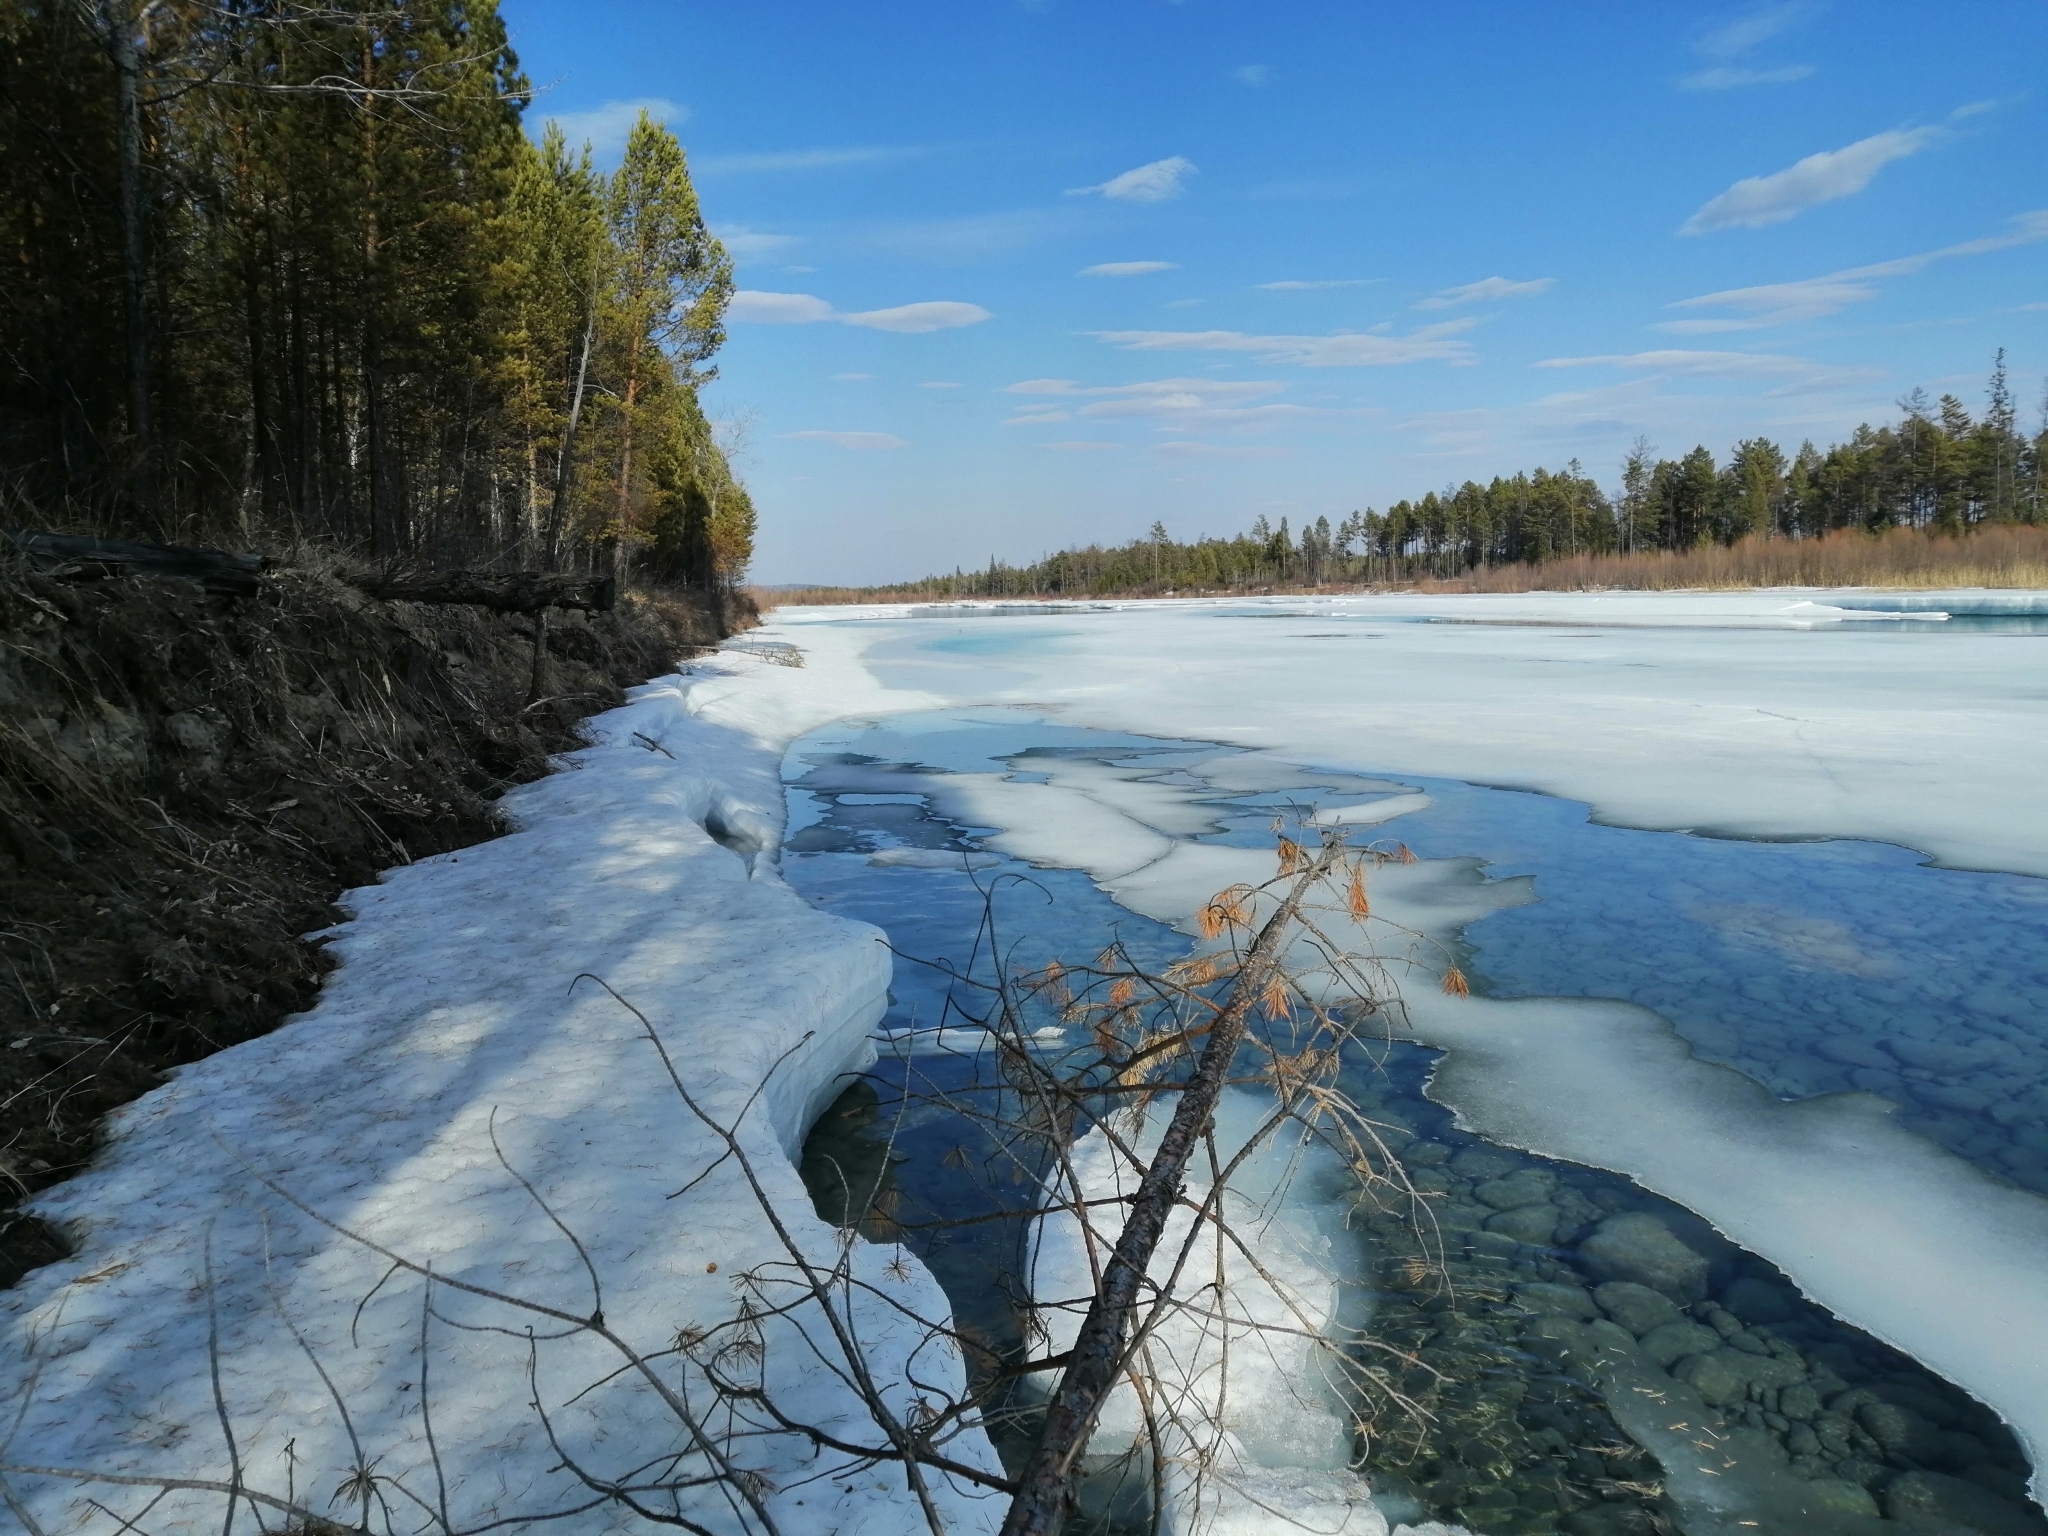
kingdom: Plantae
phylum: Tracheophyta
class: Pinopsida
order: Pinales
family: Pinaceae
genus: Pinus
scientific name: Pinus sylvestris
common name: Scots pine
